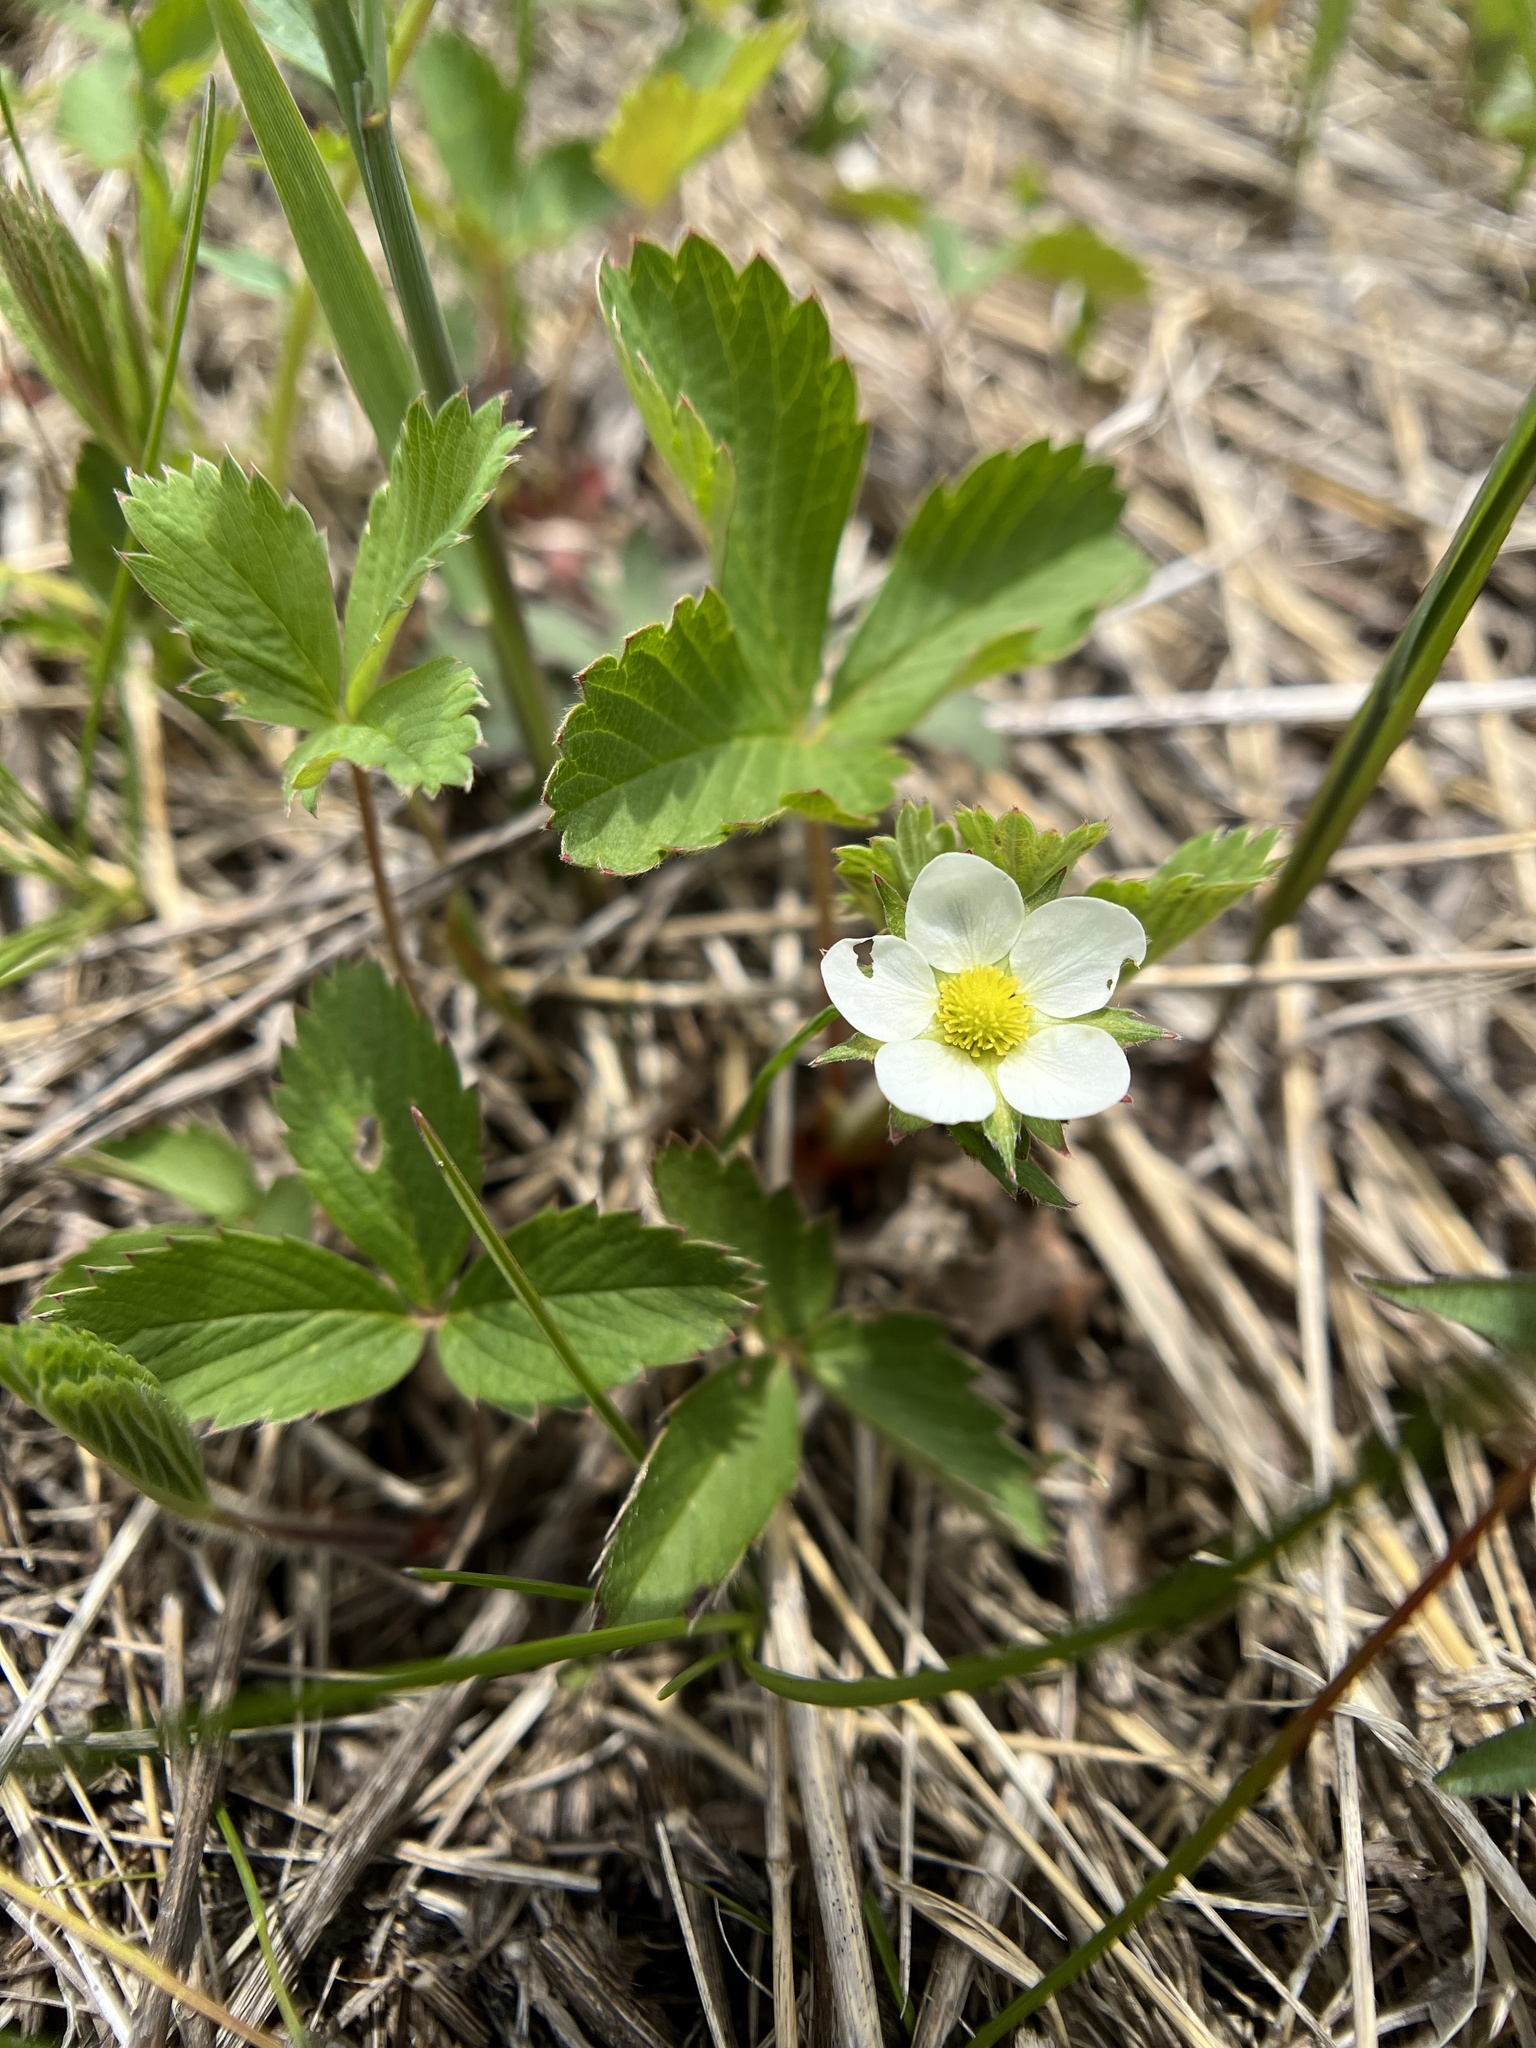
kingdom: Plantae
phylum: Tracheophyta
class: Magnoliopsida
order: Rosales
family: Rosaceae
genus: Fragaria
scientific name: Fragaria virginiana
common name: Thickleaved wild strawberry
